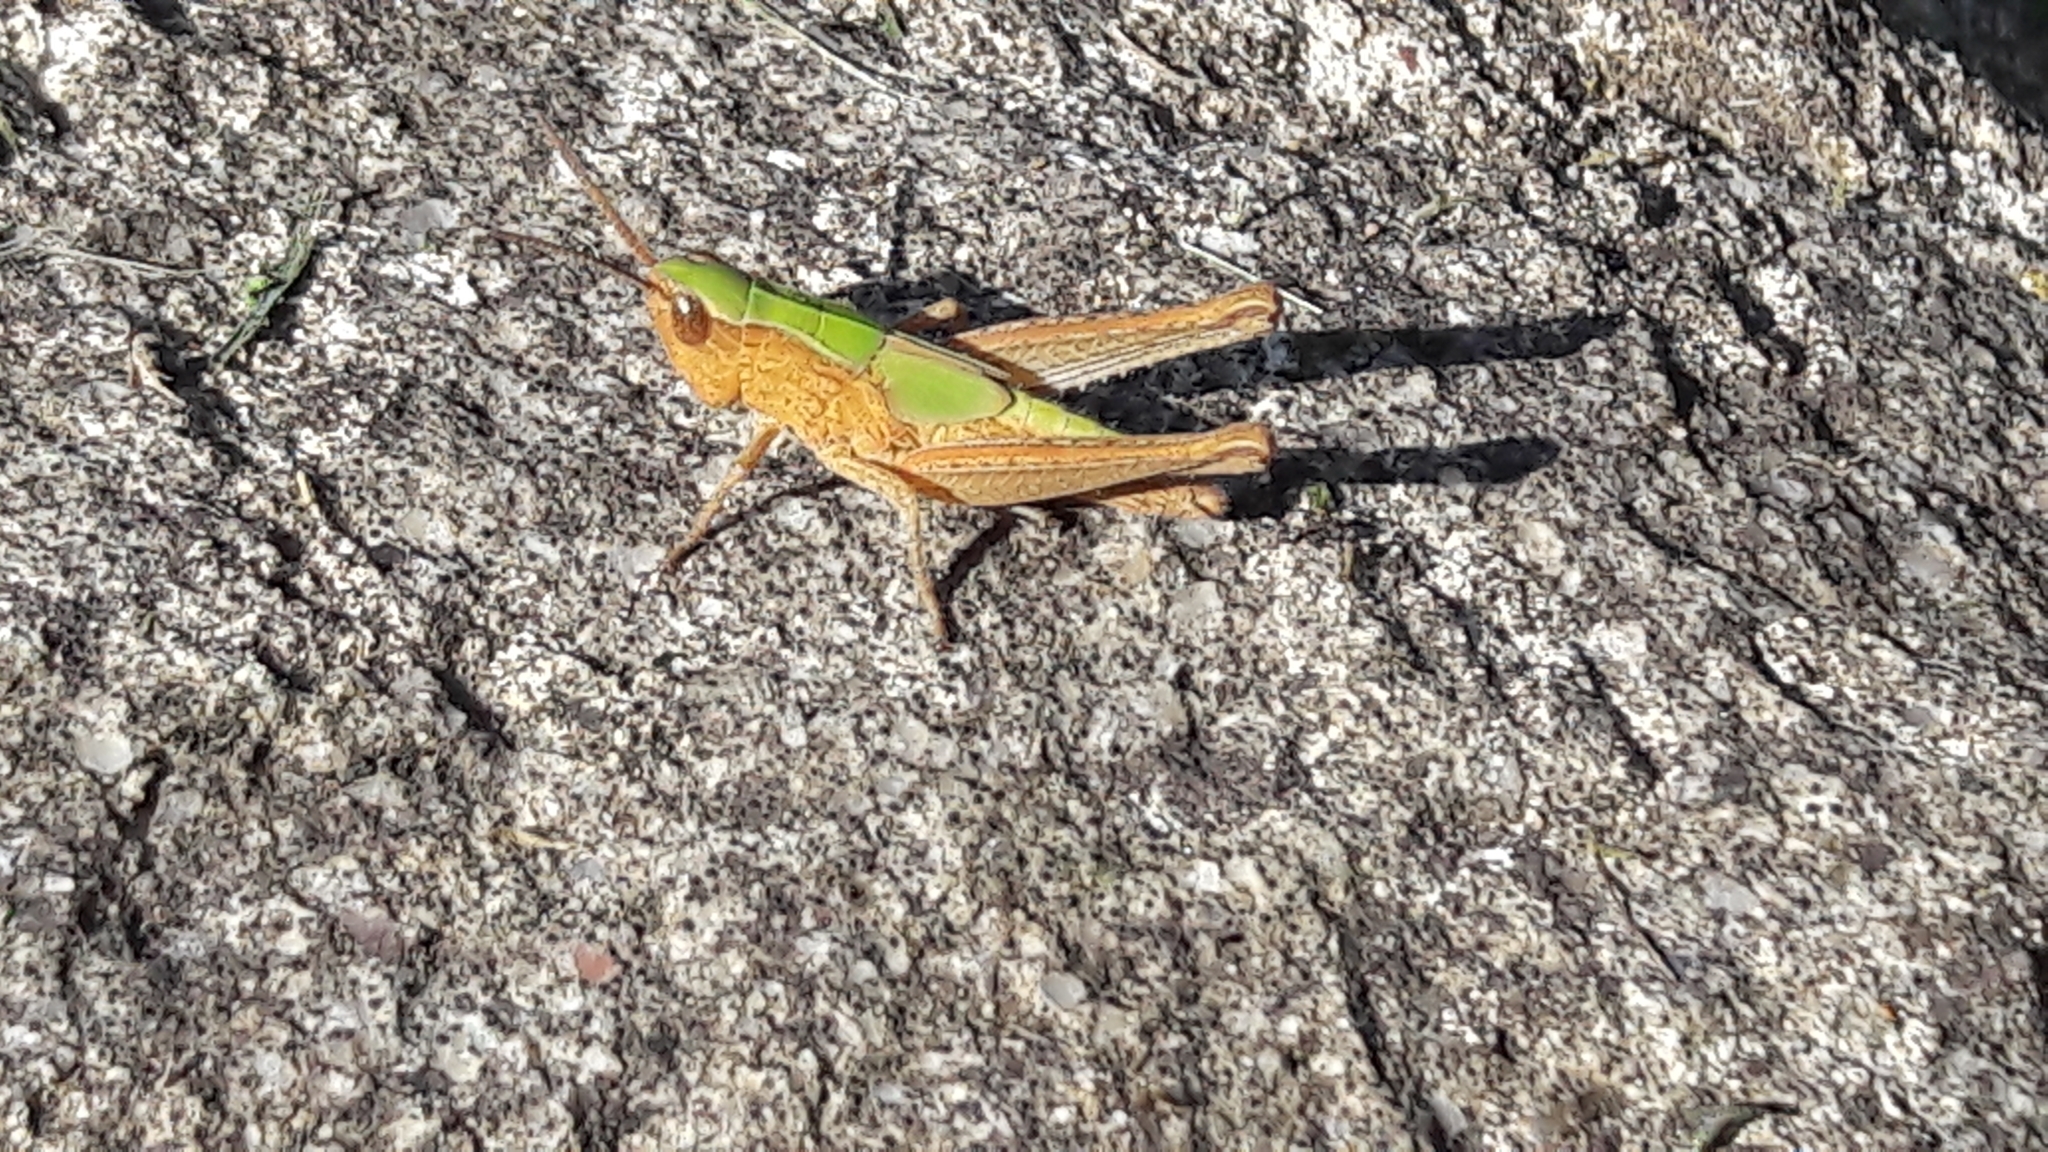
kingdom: Animalia
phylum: Arthropoda
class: Insecta
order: Orthoptera
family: Acrididae
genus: Chorthippus
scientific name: Chorthippus dorsatus
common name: Steppe grasshopper
